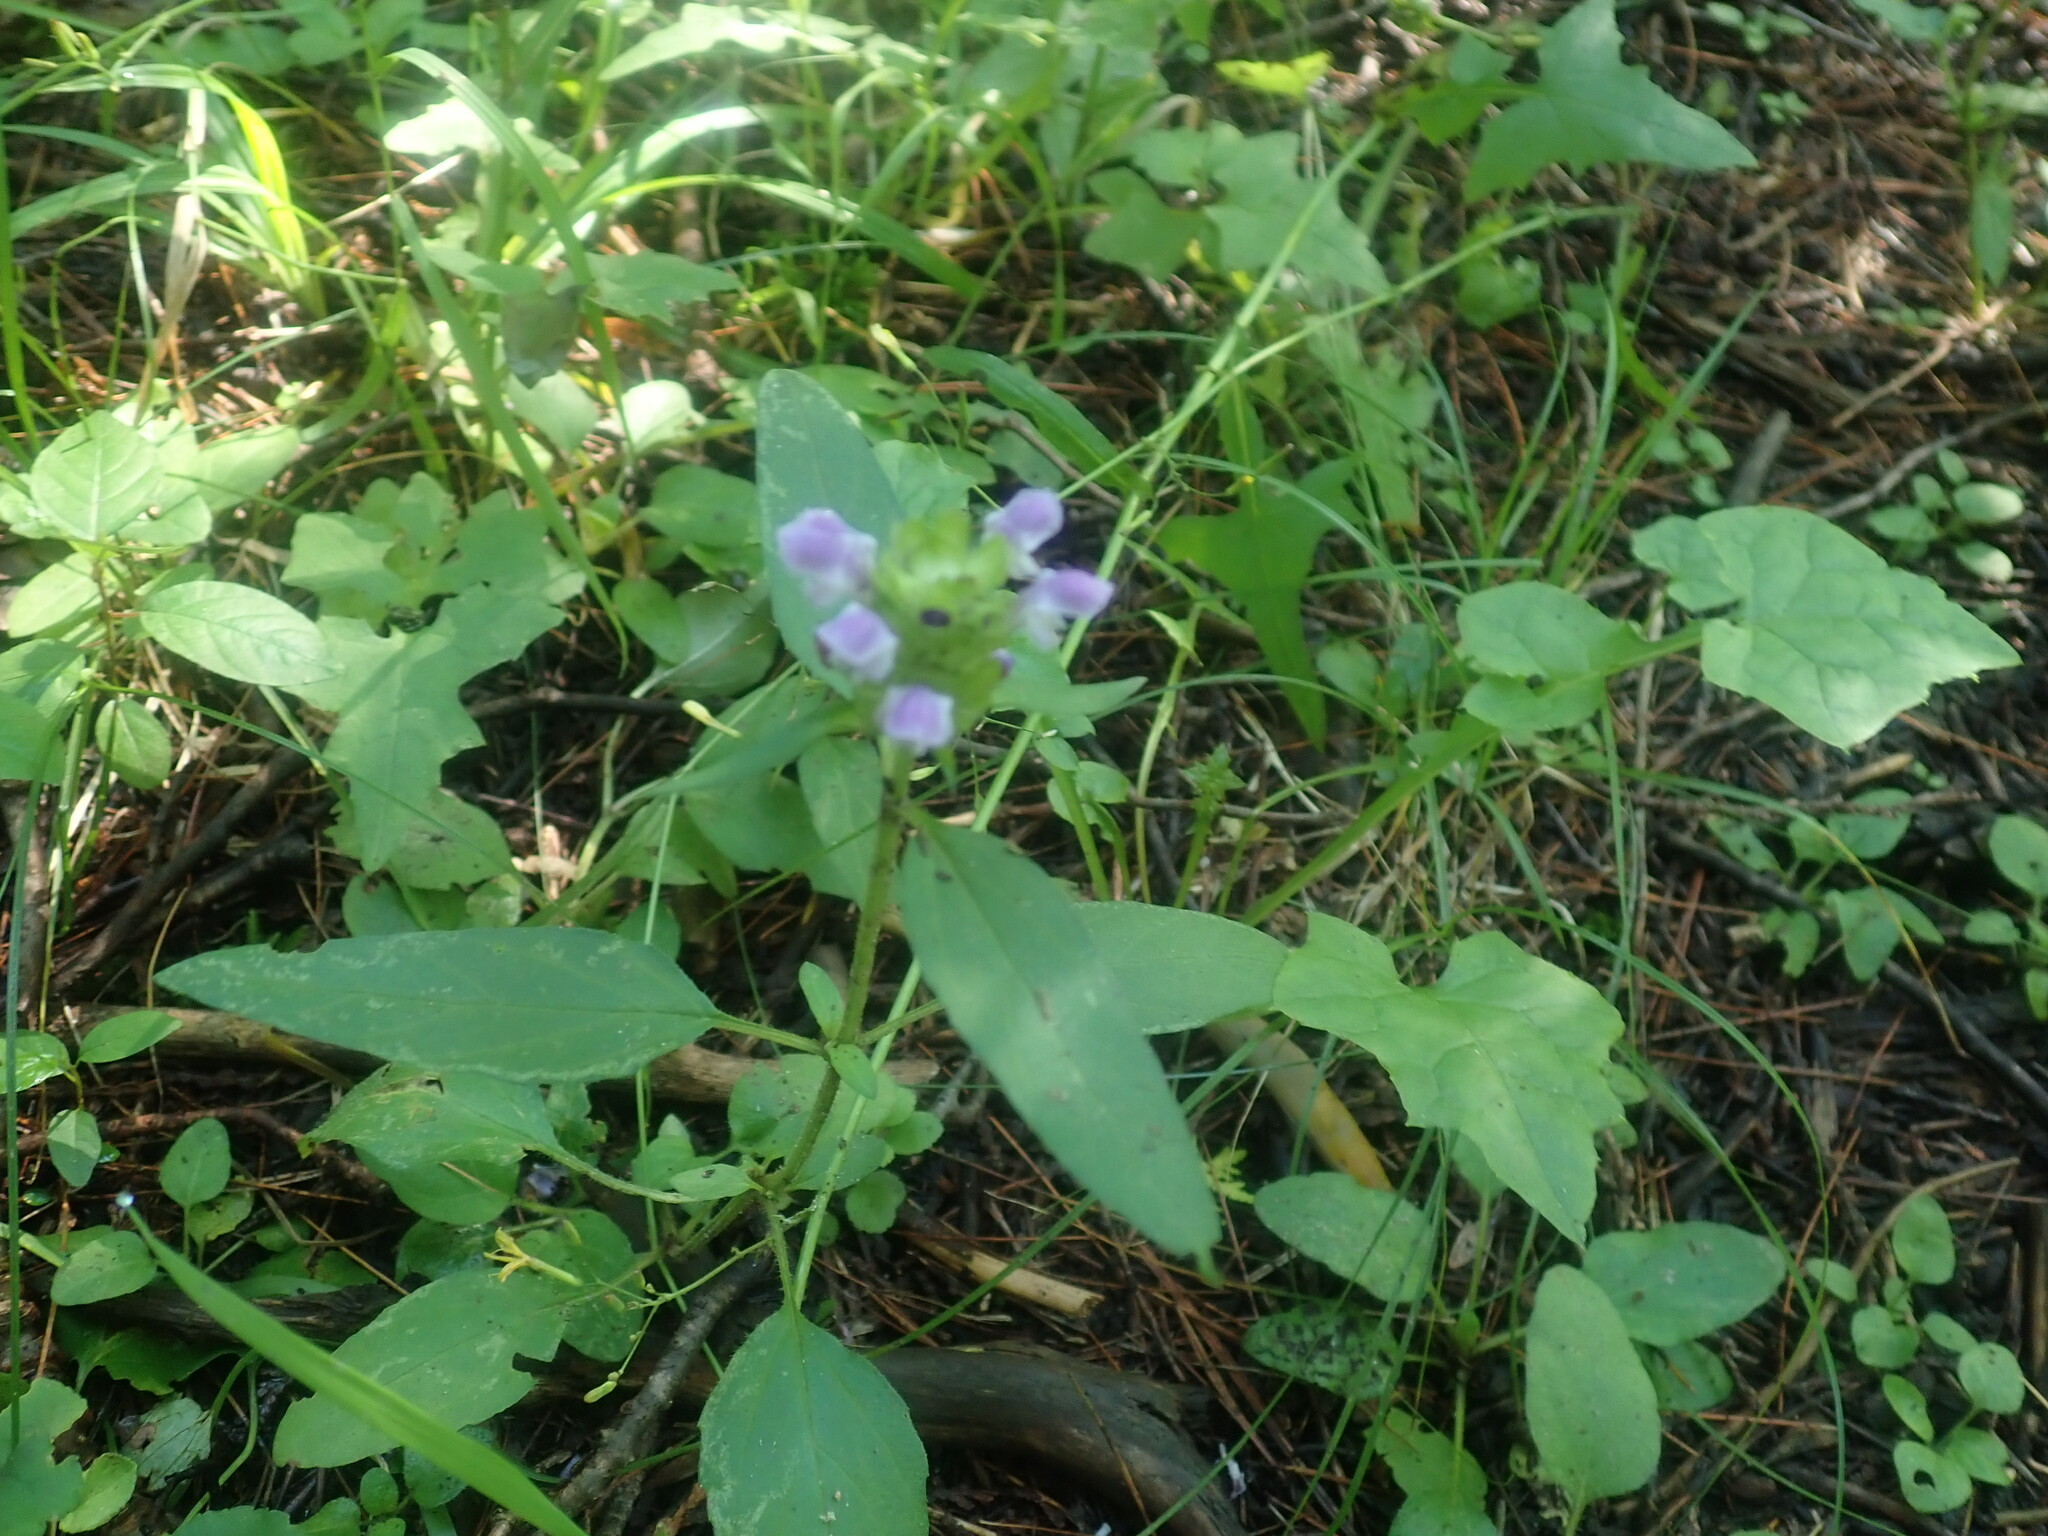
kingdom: Plantae
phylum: Tracheophyta
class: Magnoliopsida
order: Lamiales
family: Lamiaceae
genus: Prunella
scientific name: Prunella vulgaris
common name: Heal-all
